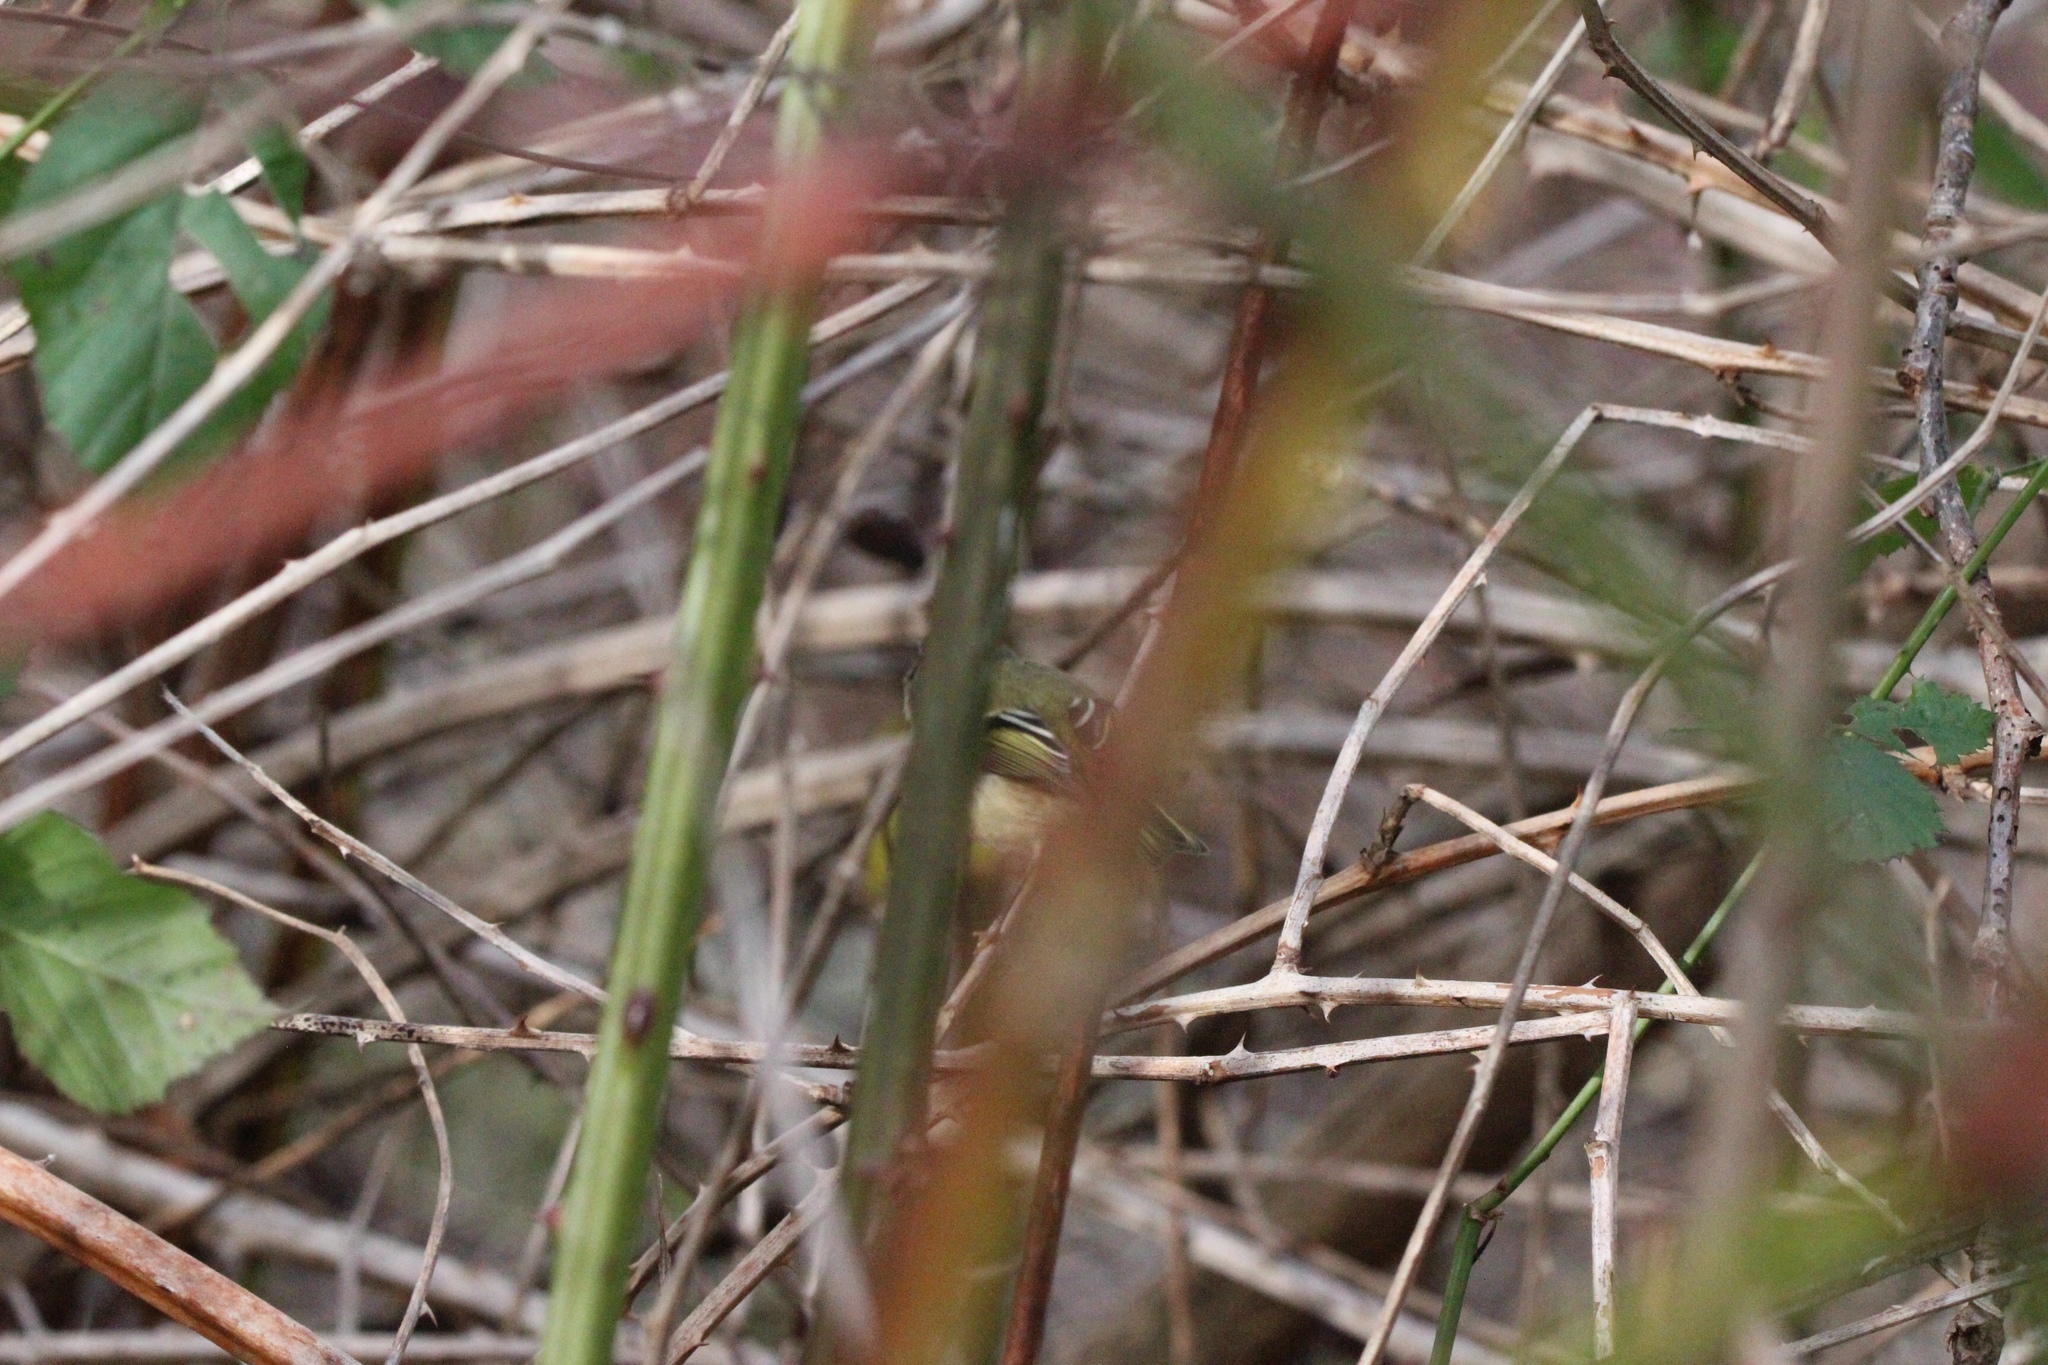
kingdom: Animalia
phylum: Chordata
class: Aves
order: Passeriformes
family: Regulidae
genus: Regulus
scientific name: Regulus calendula
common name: Ruby-crowned kinglet
